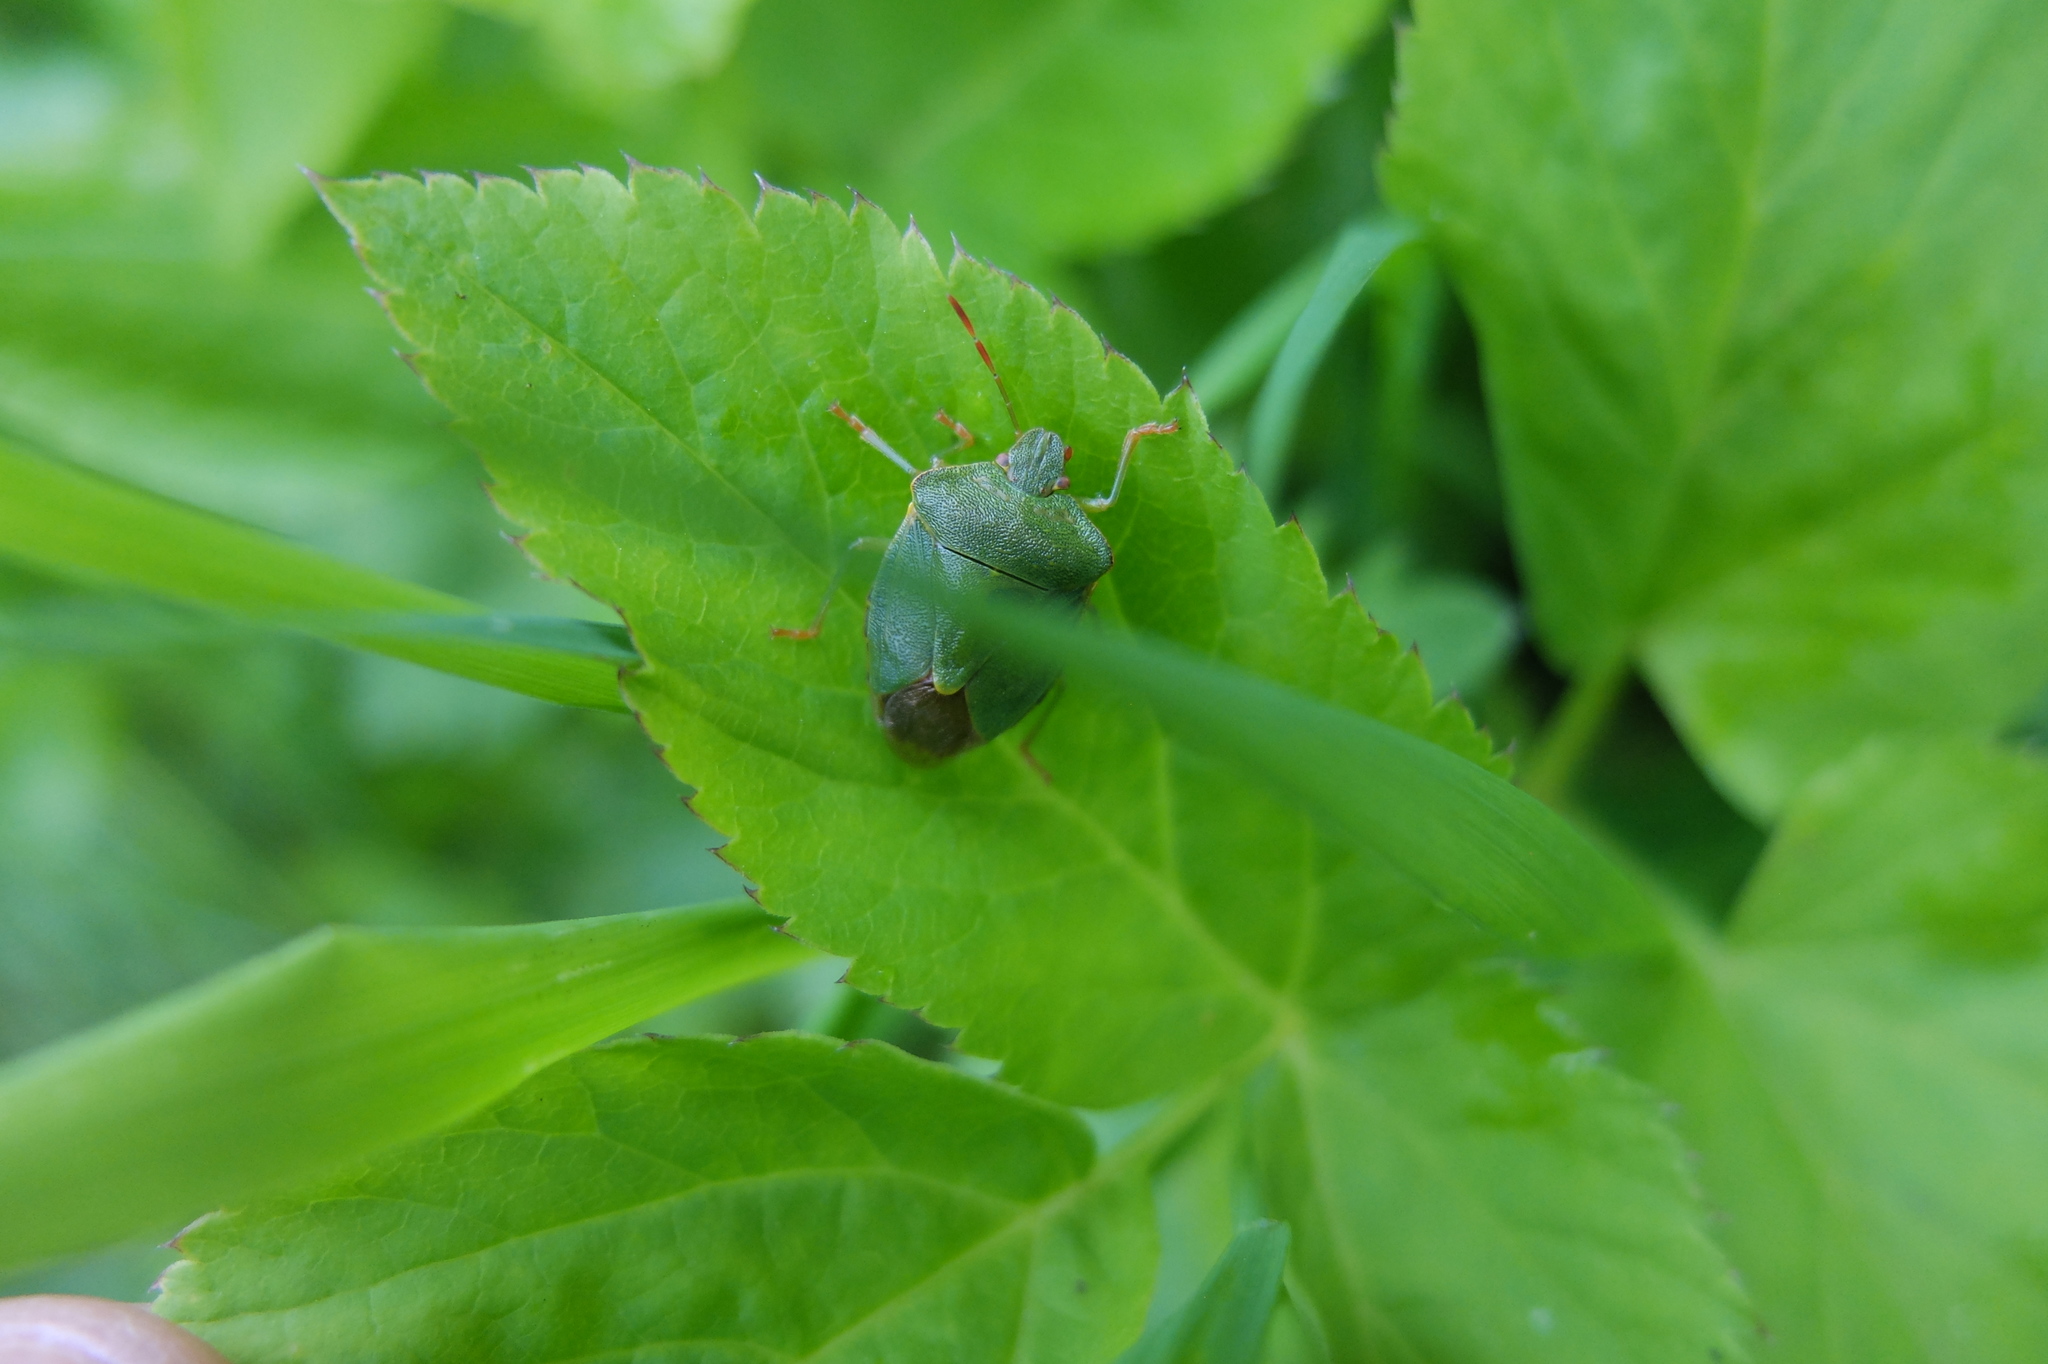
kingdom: Animalia
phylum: Arthropoda
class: Insecta
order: Hemiptera
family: Pentatomidae
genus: Palomena
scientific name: Palomena prasina
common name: Green shieldbug
